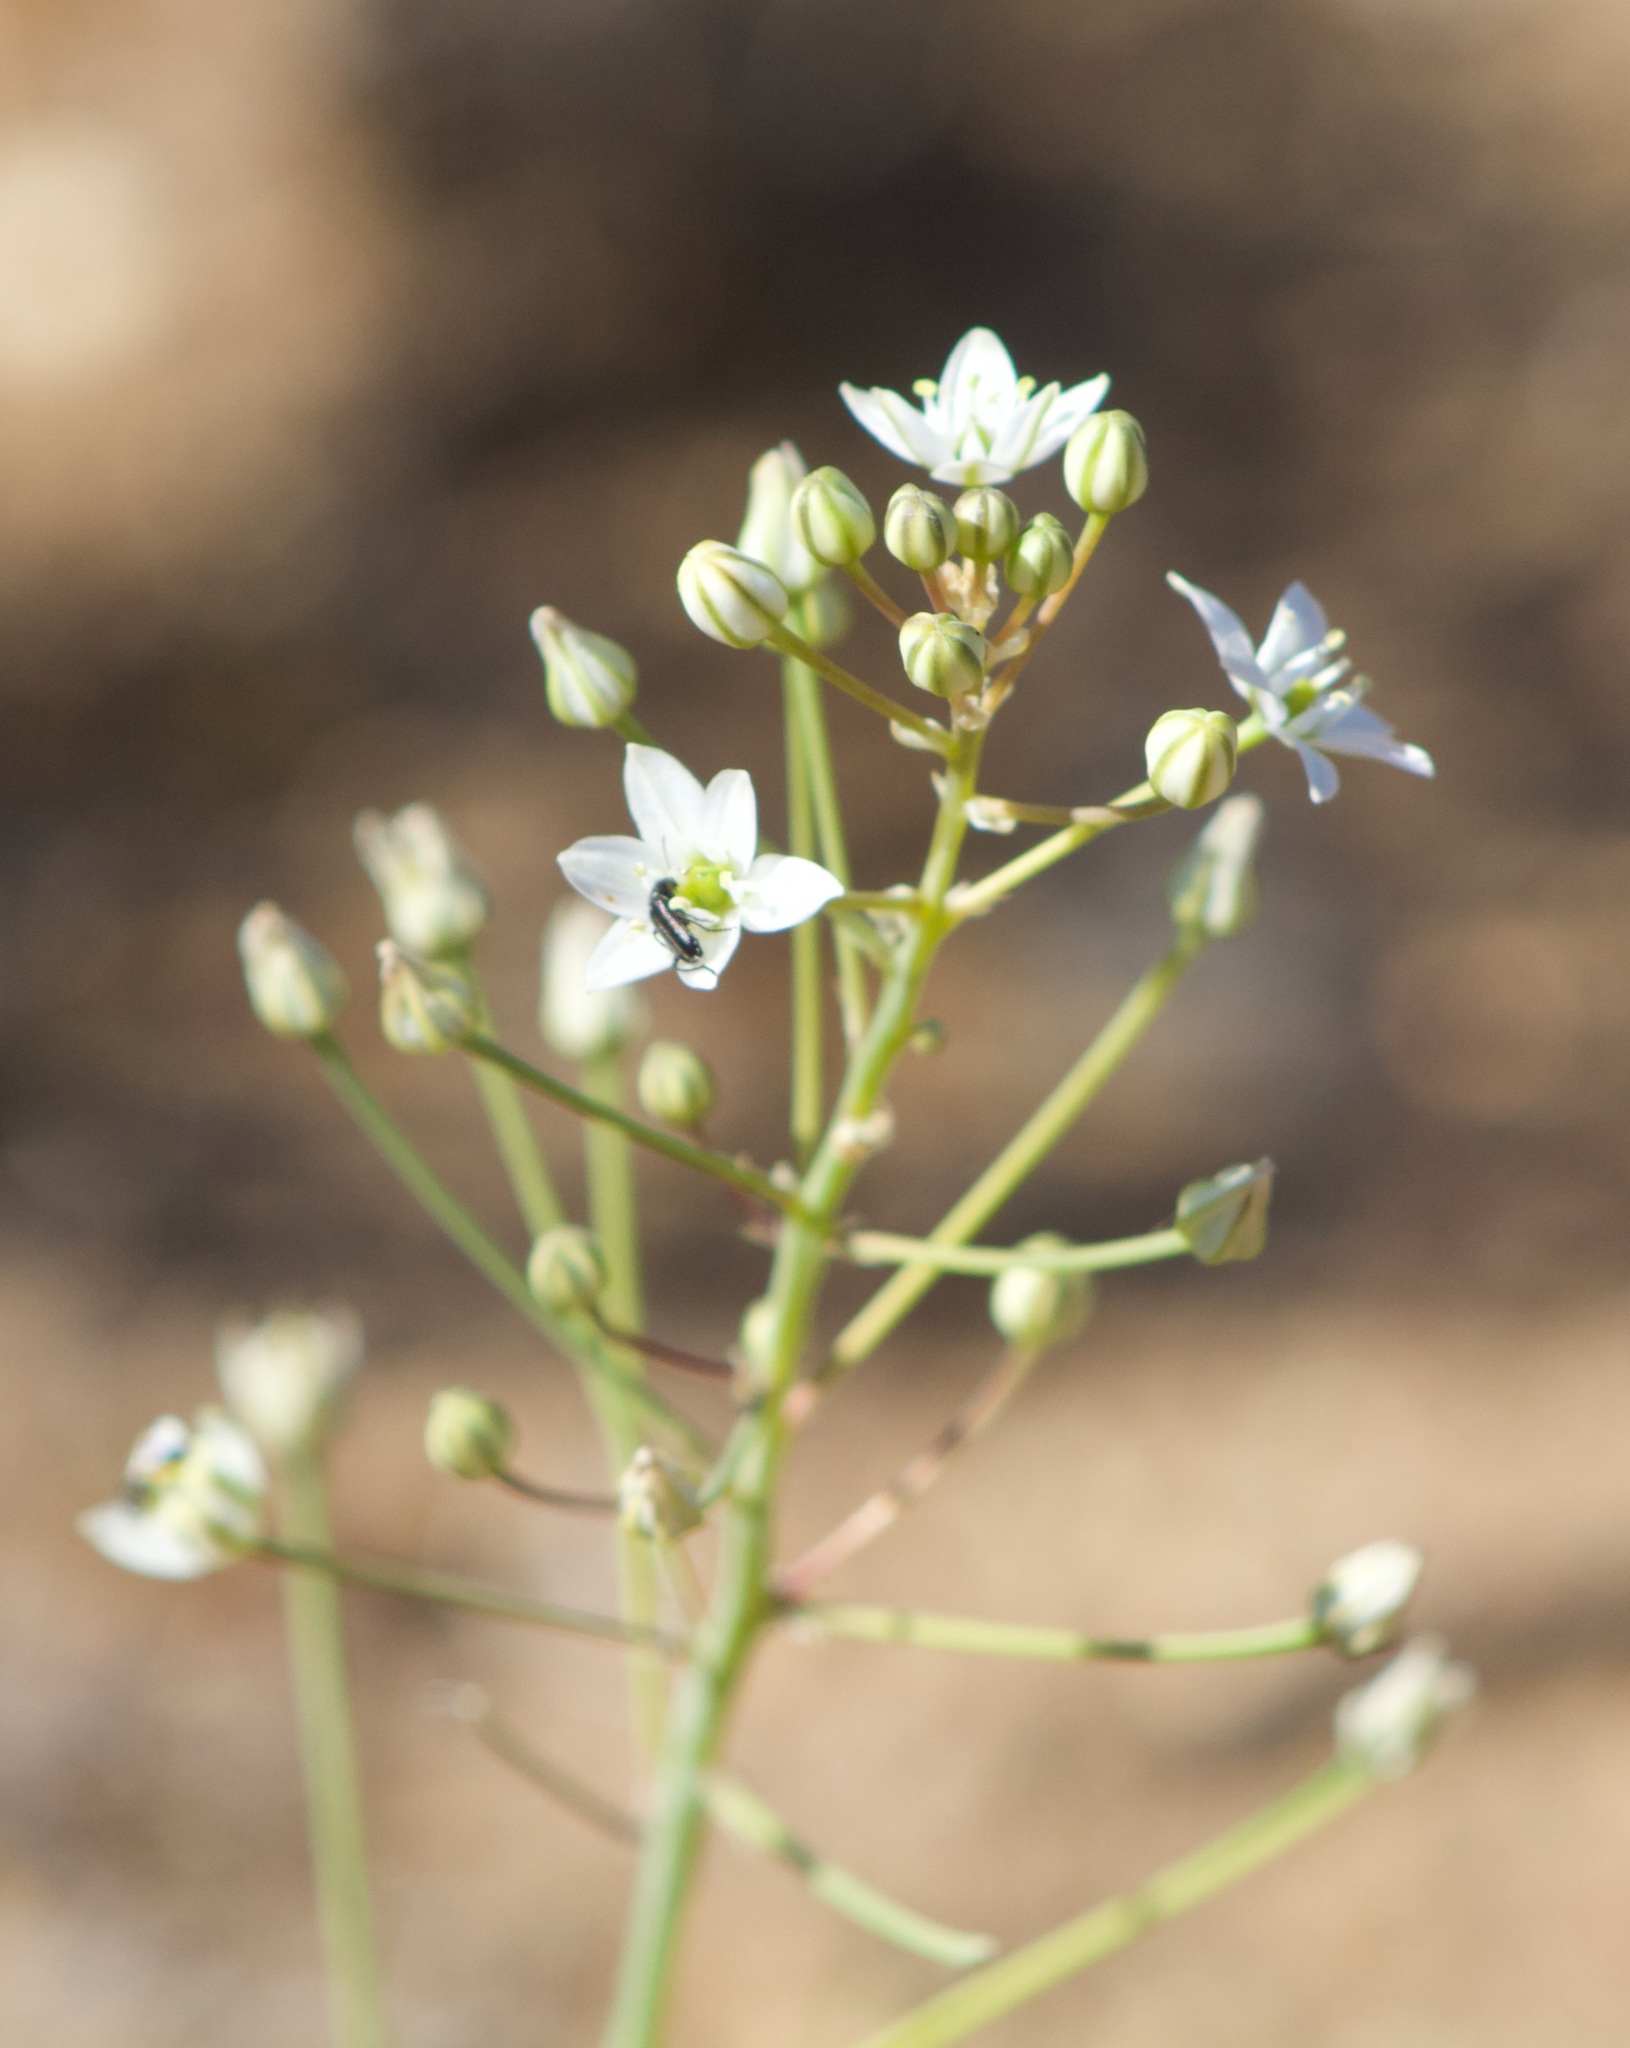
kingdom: Plantae
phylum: Tracheophyta
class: Liliopsida
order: Asparagales
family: Asparagaceae
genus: Oziroe
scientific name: Oziroe biflora
